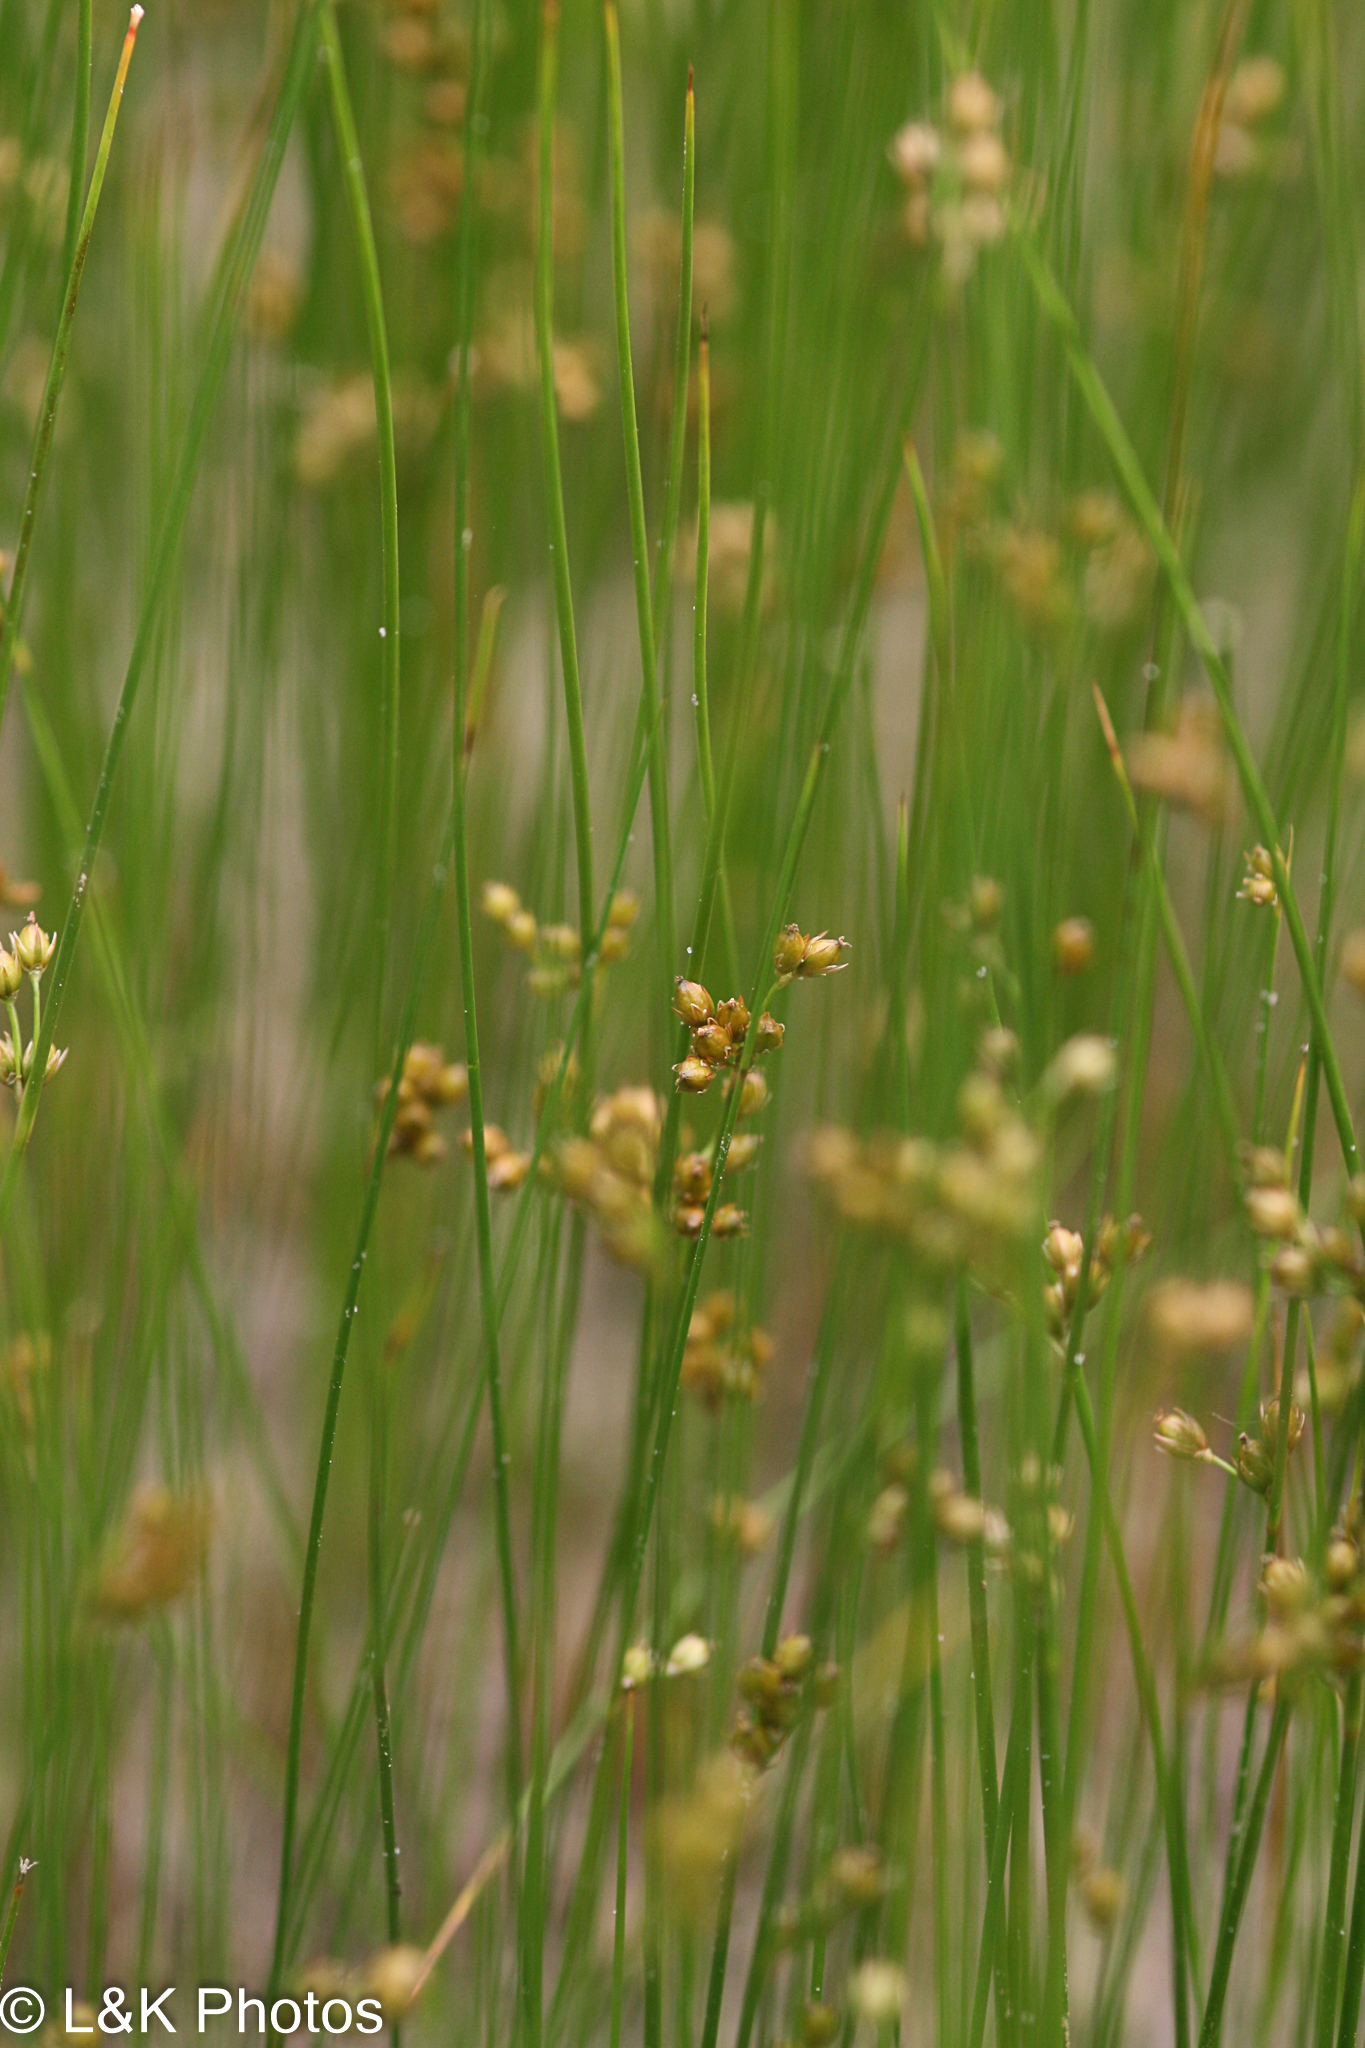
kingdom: Plantae
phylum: Tracheophyta
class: Liliopsida
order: Poales
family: Juncaceae
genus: Juncus
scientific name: Juncus filiformis
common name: Thread rush
